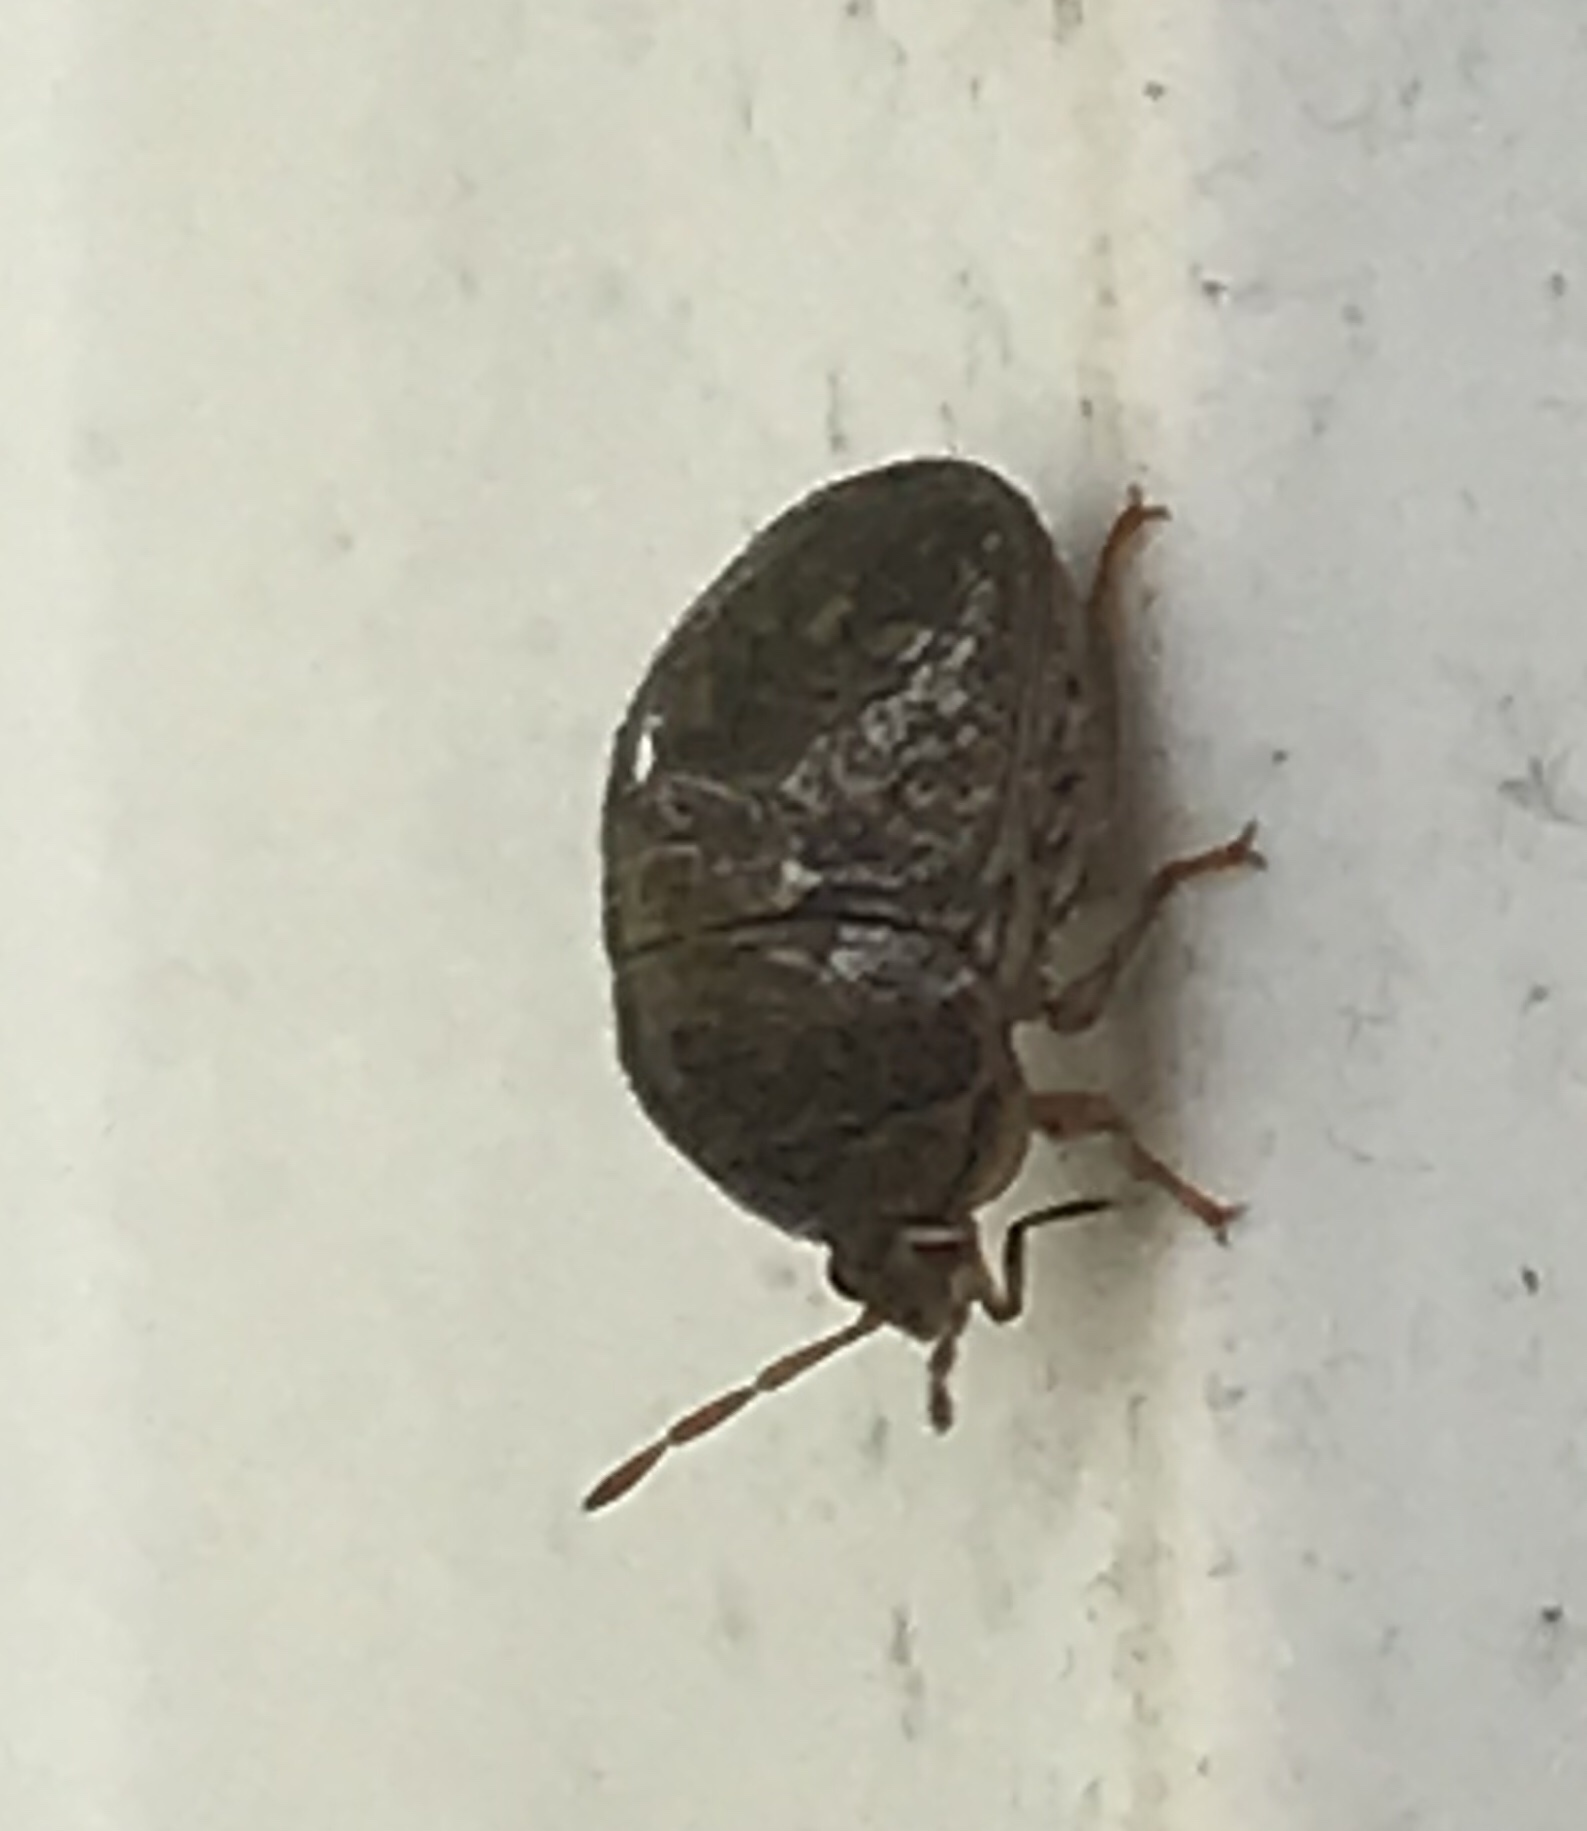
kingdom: Animalia
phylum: Arthropoda
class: Insecta
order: Hemiptera
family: Plataspidae
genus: Megacopta
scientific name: Megacopta cribraria
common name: Bean plataspid
